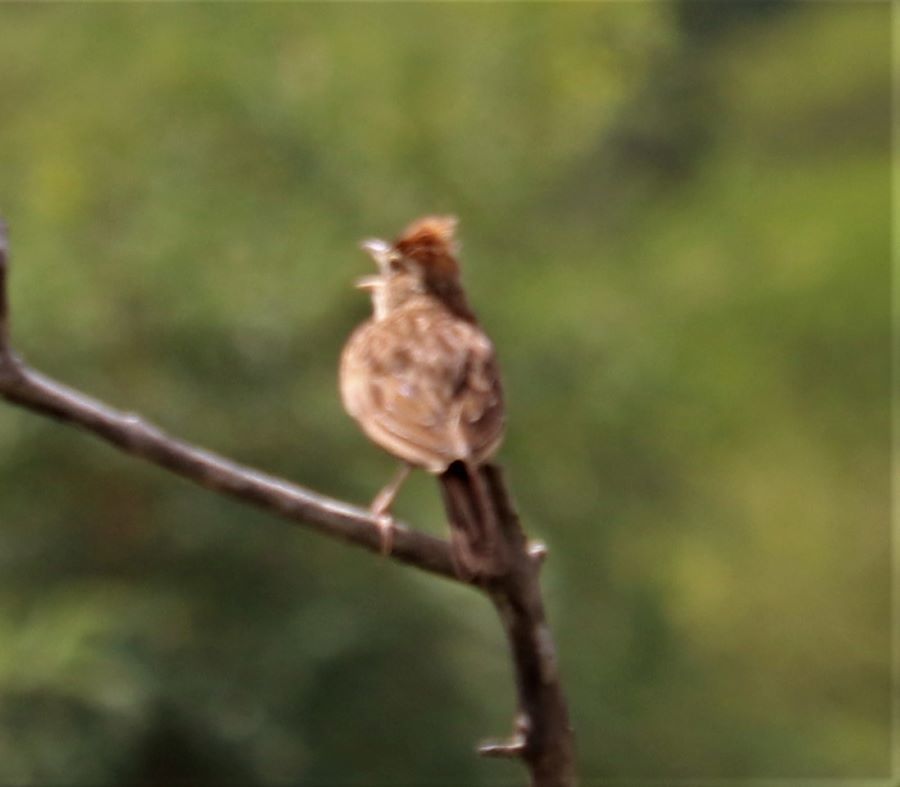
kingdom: Animalia
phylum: Chordata
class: Aves
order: Passeriformes
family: Alaudidae
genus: Mirafra
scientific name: Mirafra africana
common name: Rufous-naped lark
